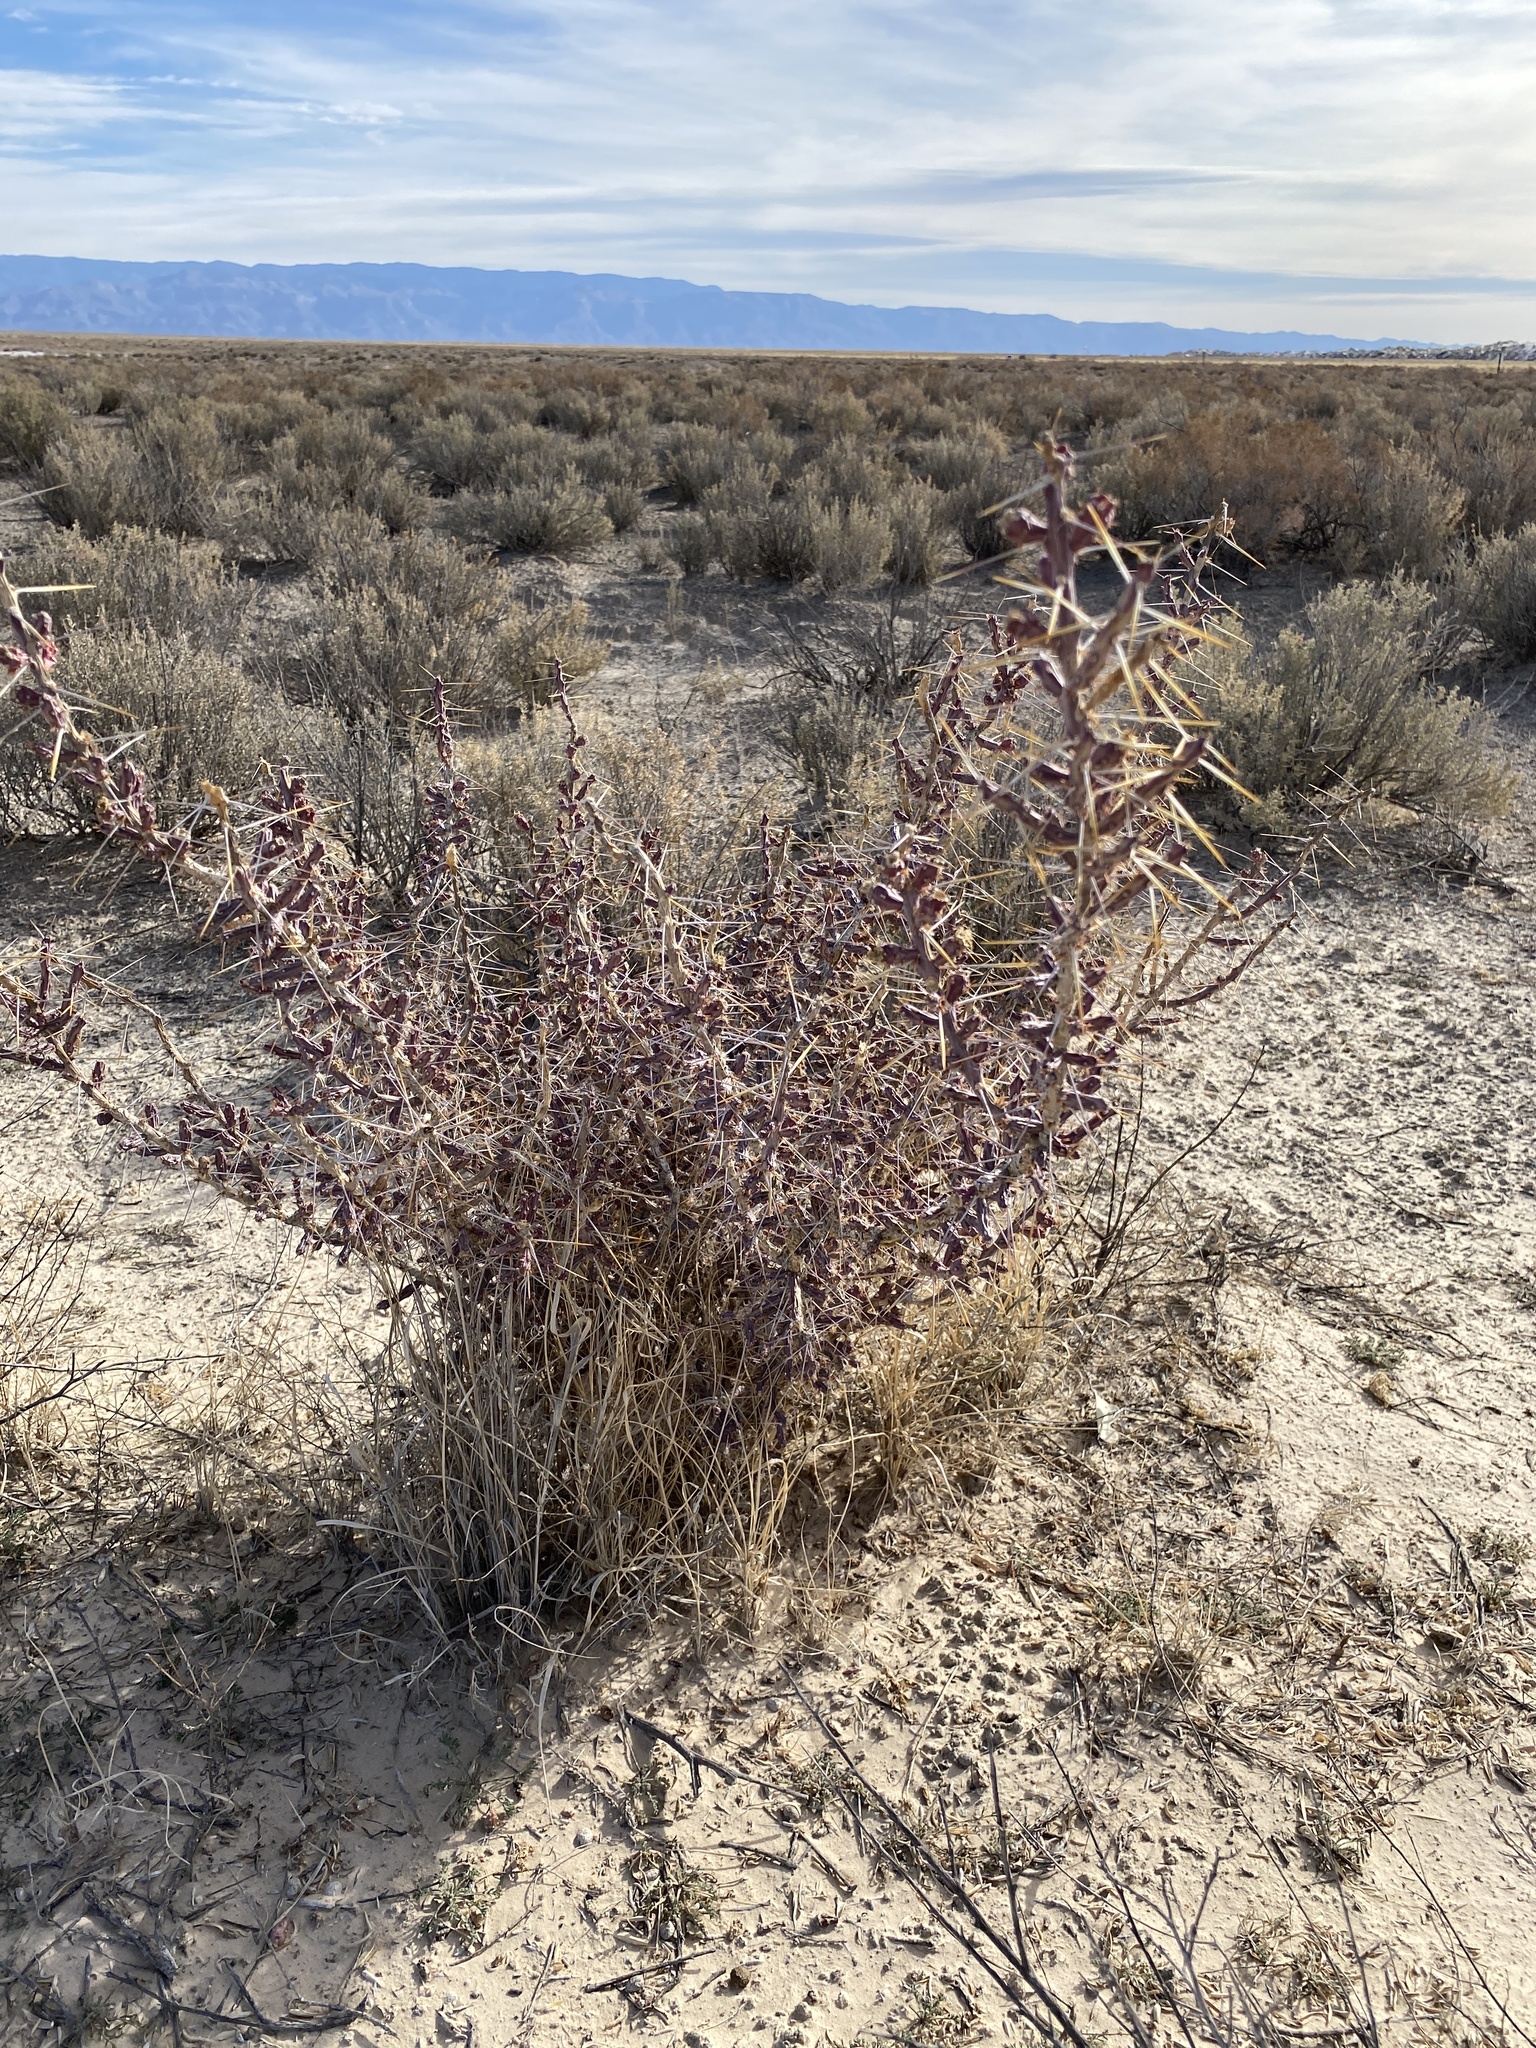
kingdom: Plantae
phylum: Tracheophyta
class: Magnoliopsida
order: Caryophyllales
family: Cactaceae
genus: Cylindropuntia
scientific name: Cylindropuntia leptocaulis
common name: Christmas cactus
